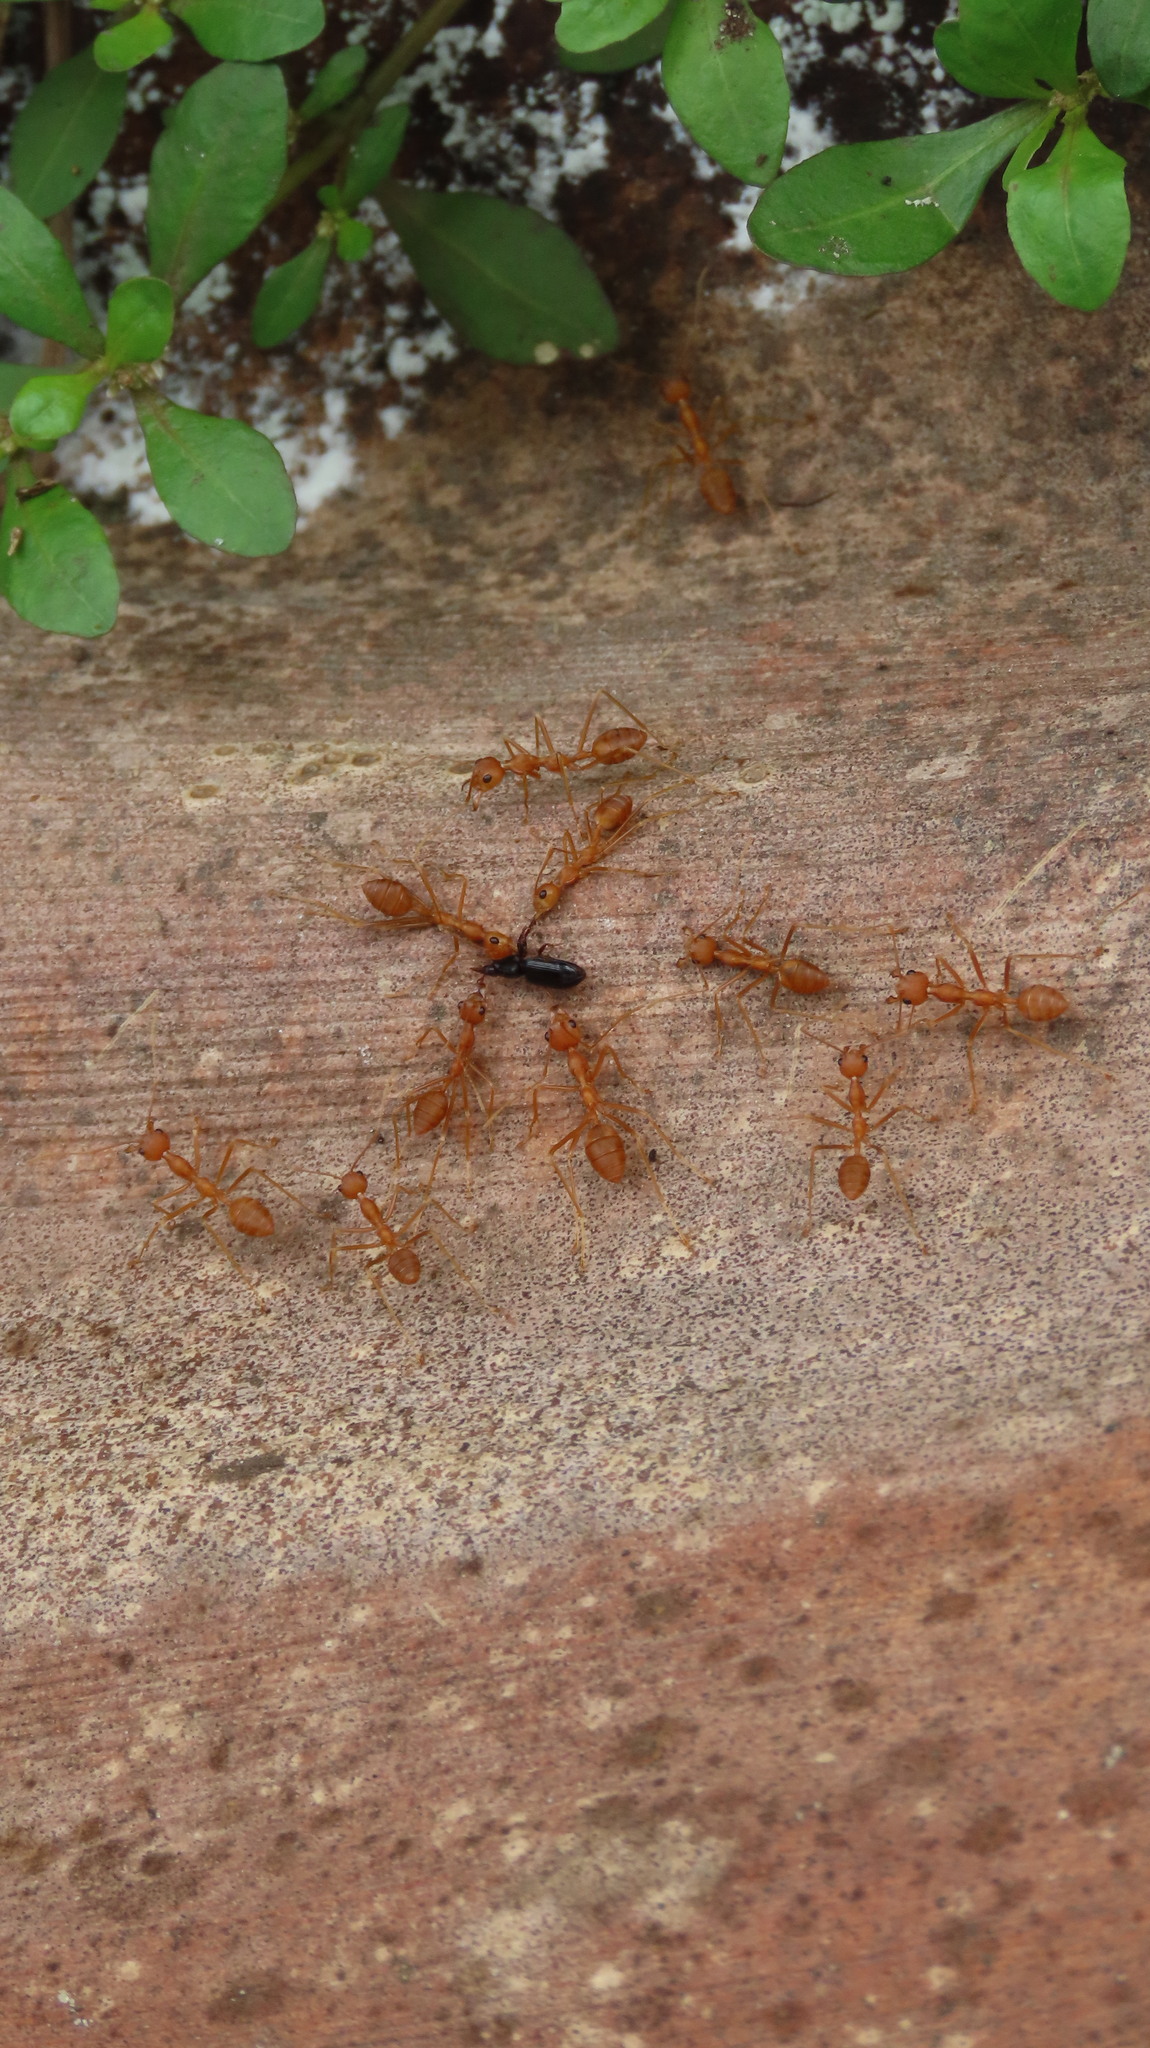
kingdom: Animalia
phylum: Arthropoda
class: Insecta
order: Hymenoptera
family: Formicidae
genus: Oecophylla
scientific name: Oecophylla smaragdina
